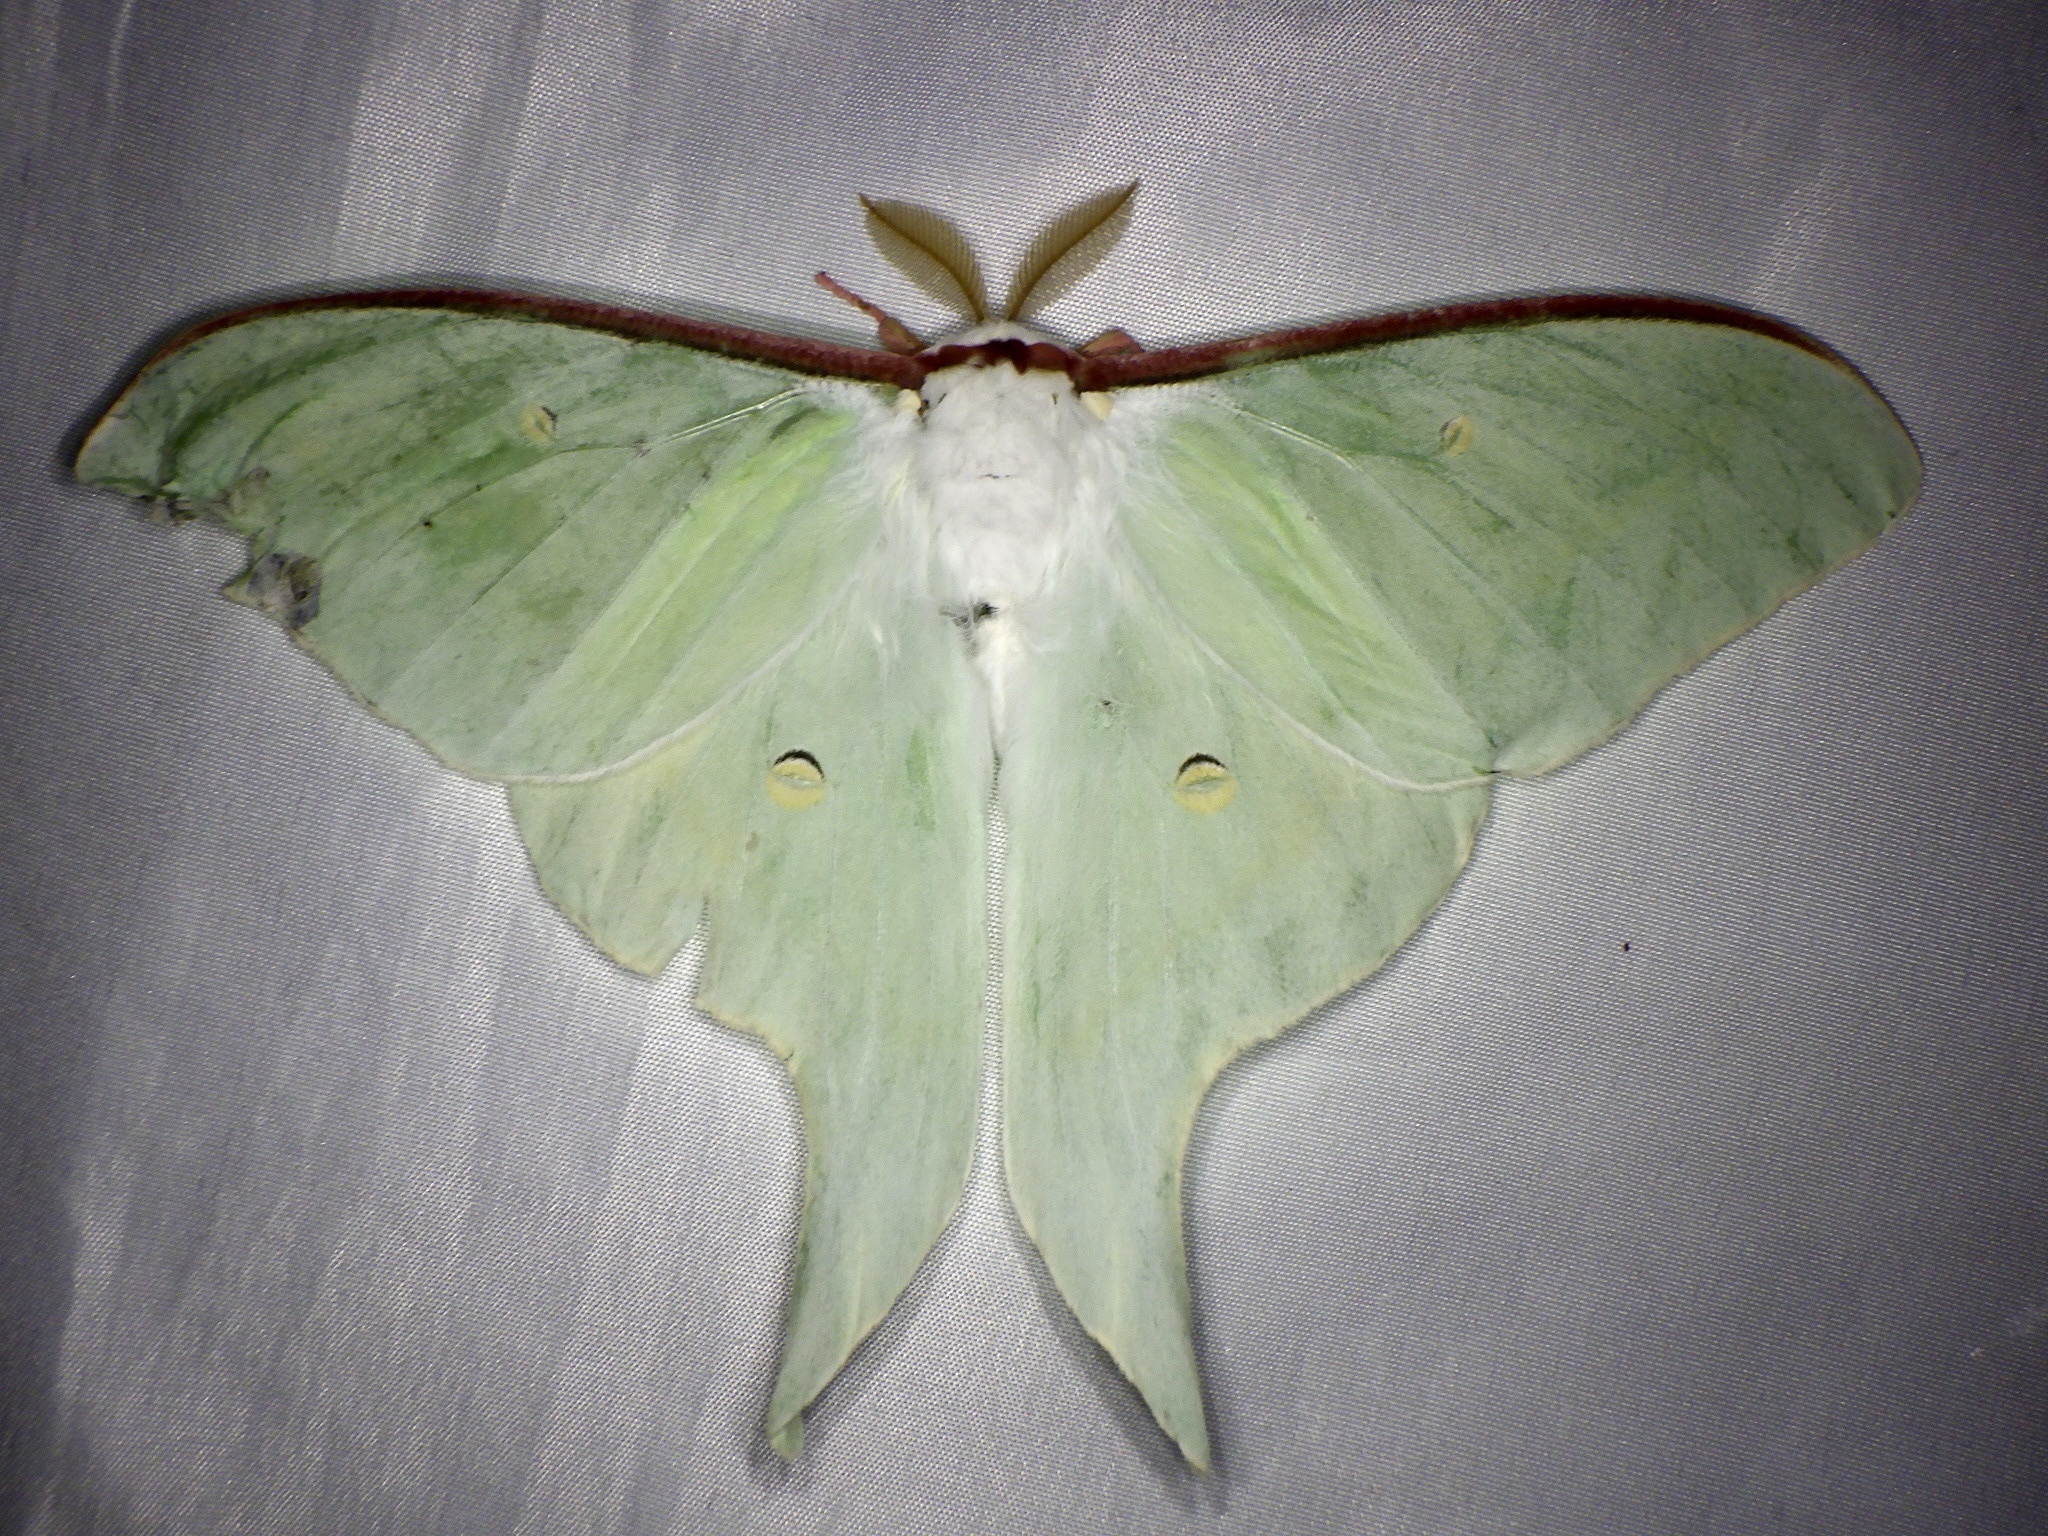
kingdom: Animalia
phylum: Arthropoda
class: Insecta
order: Lepidoptera
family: Saturniidae
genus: Actias
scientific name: Actias aliena
